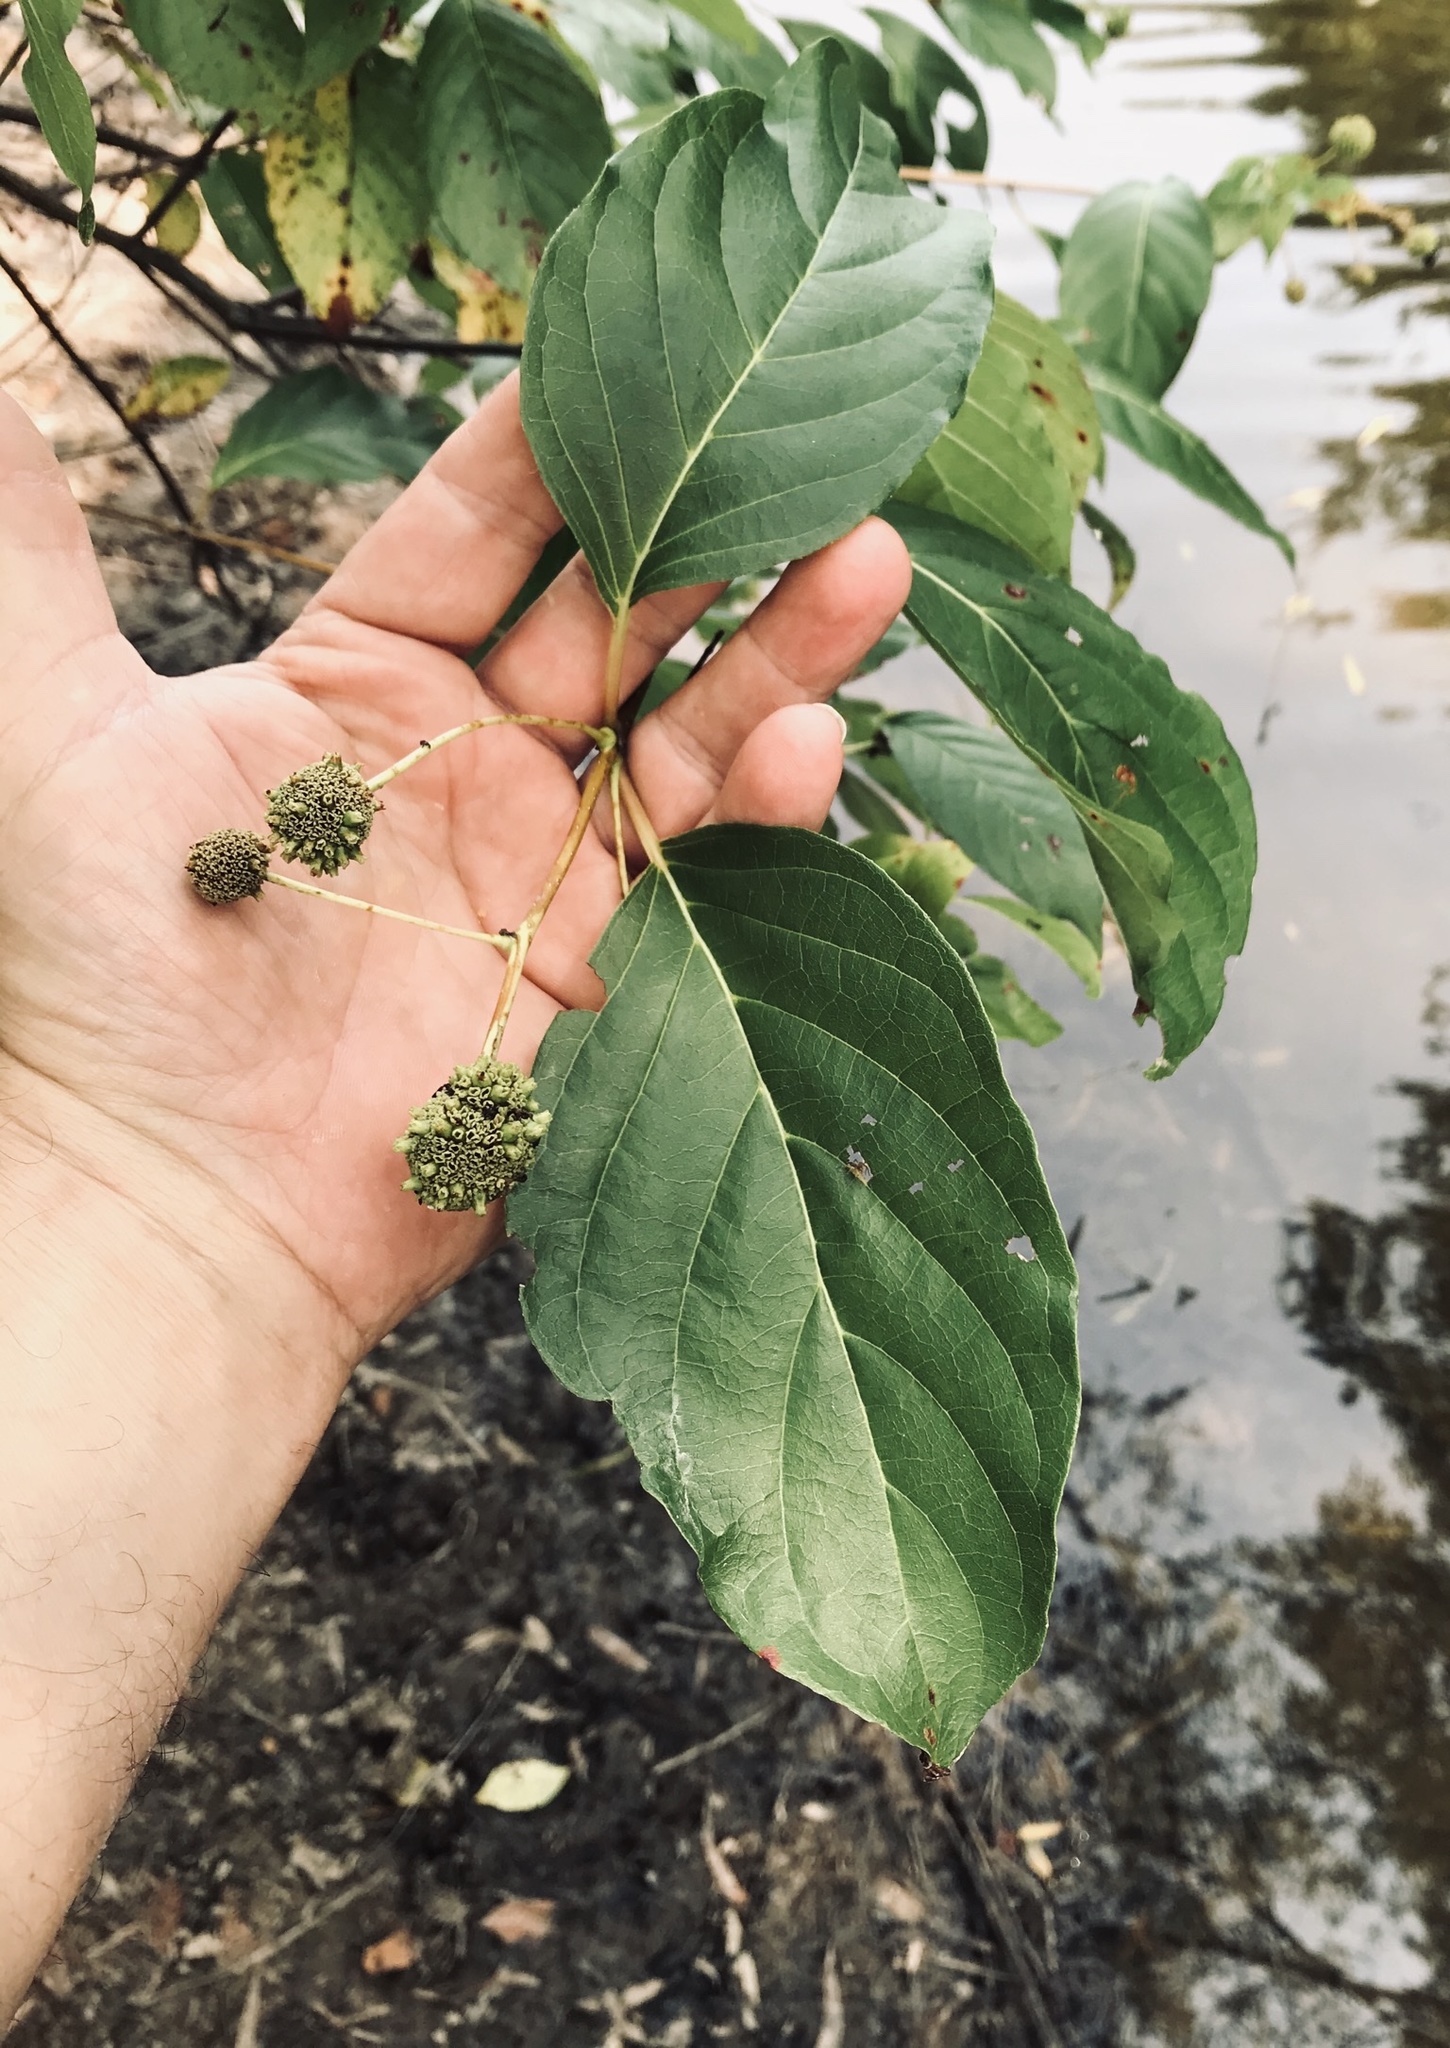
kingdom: Plantae
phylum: Tracheophyta
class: Magnoliopsida
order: Gentianales
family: Rubiaceae
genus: Cephalanthus
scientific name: Cephalanthus occidentalis
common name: Button-willow
